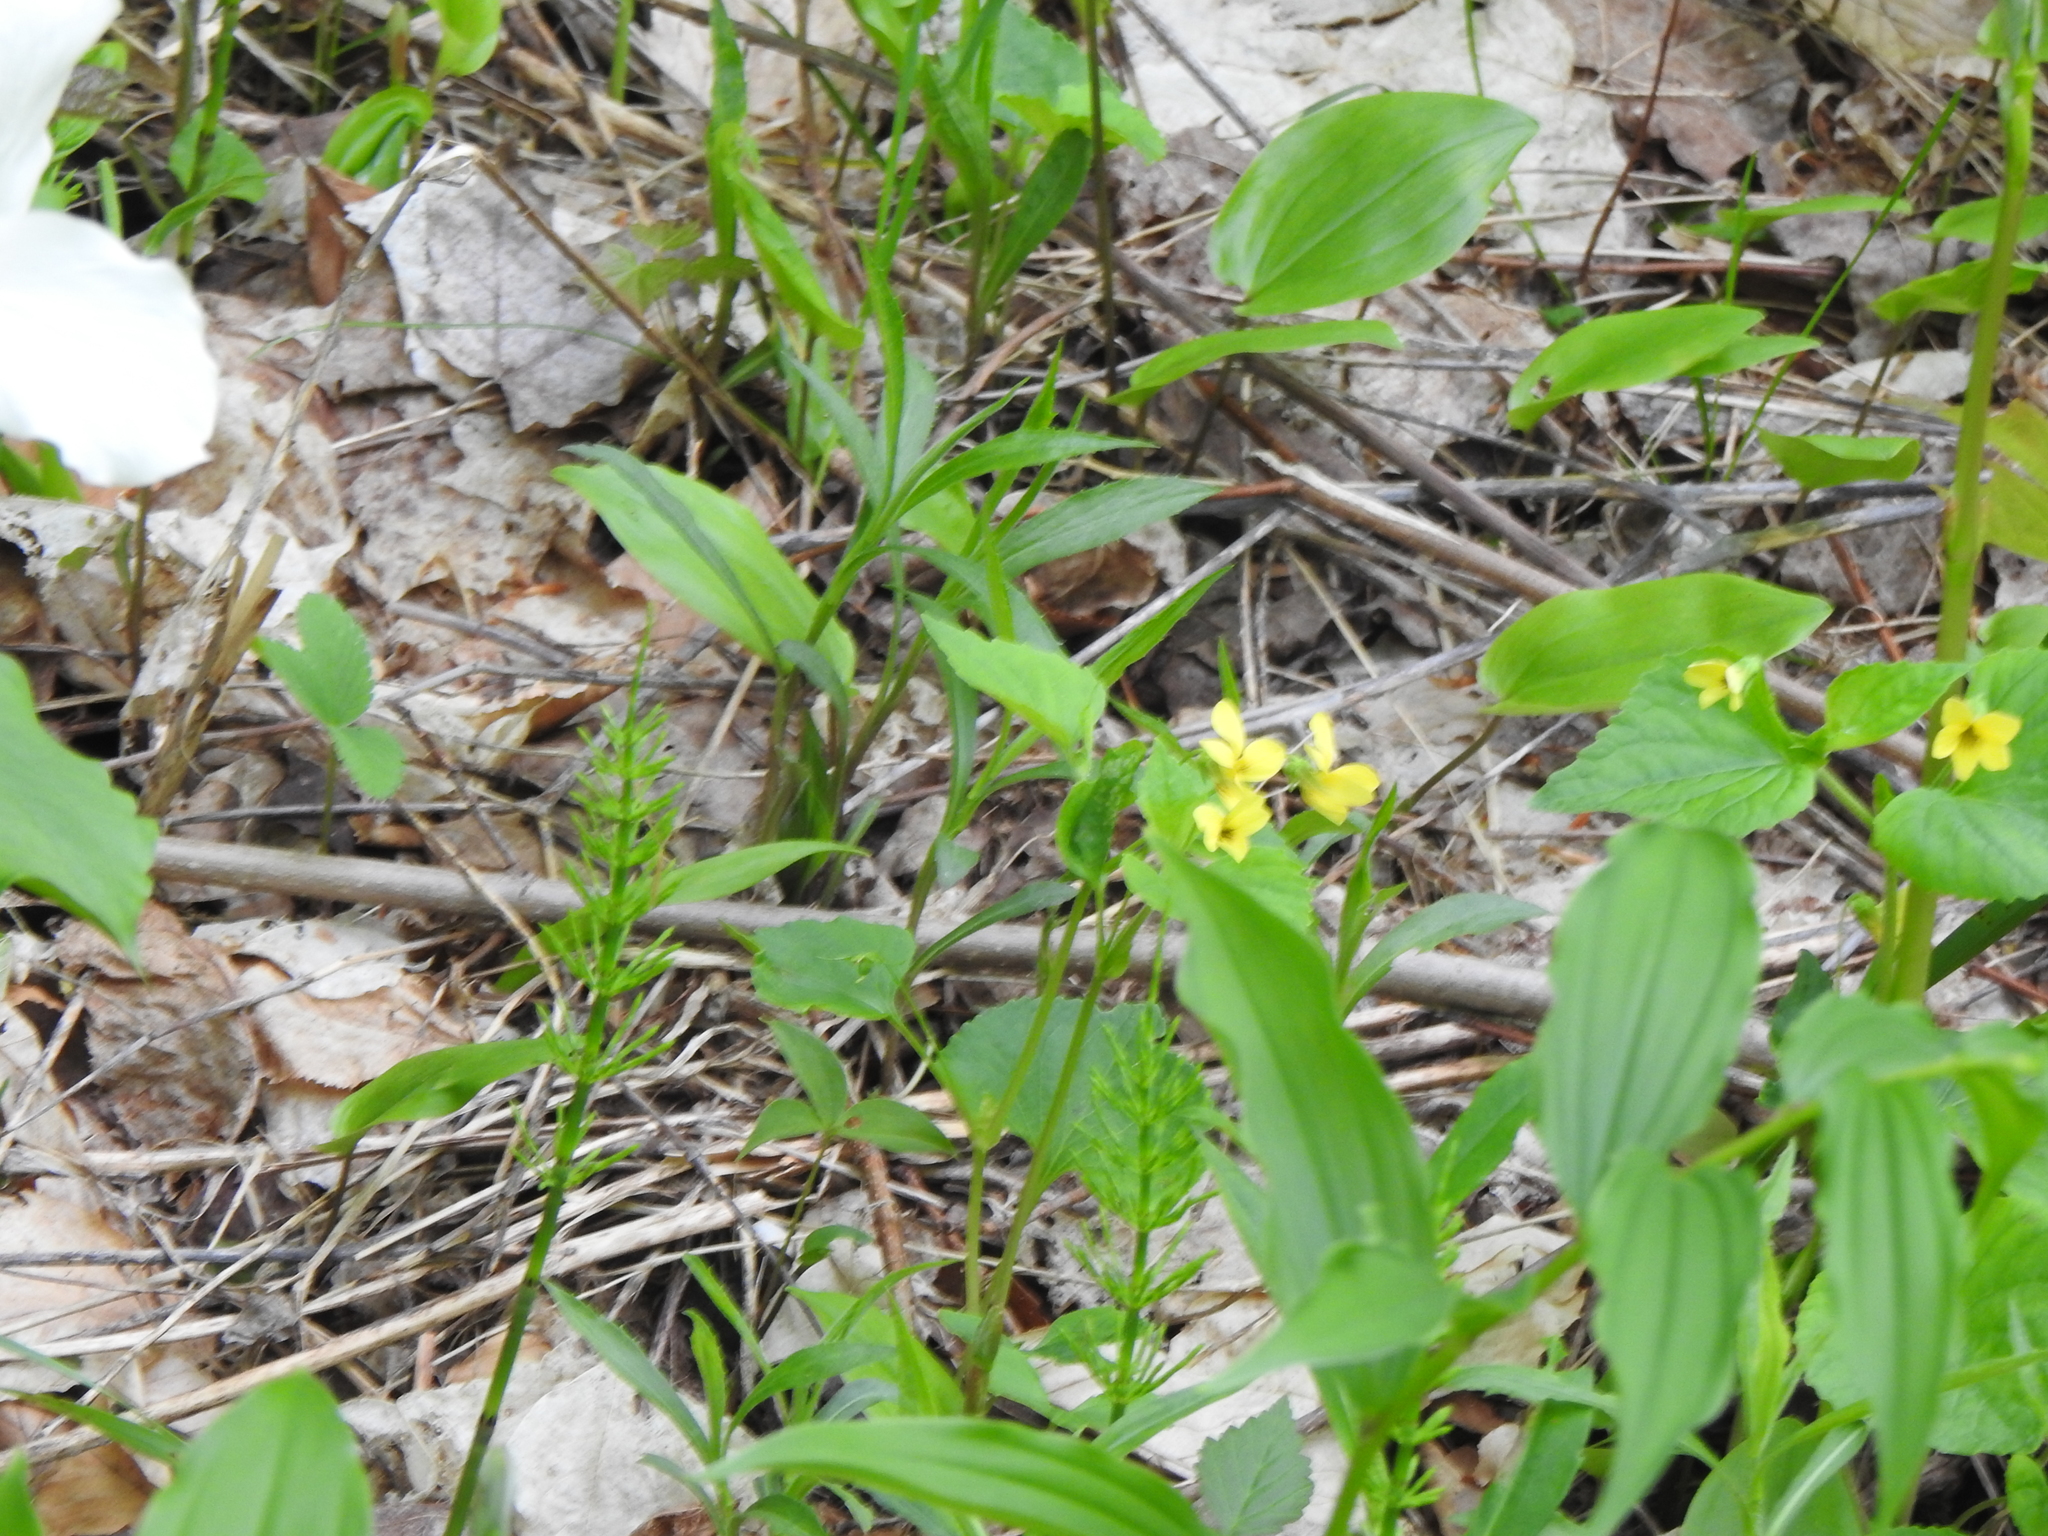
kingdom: Plantae
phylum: Tracheophyta
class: Magnoliopsida
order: Malpighiales
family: Violaceae
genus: Viola
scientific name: Viola eriocarpa
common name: Smooth yellow violet
